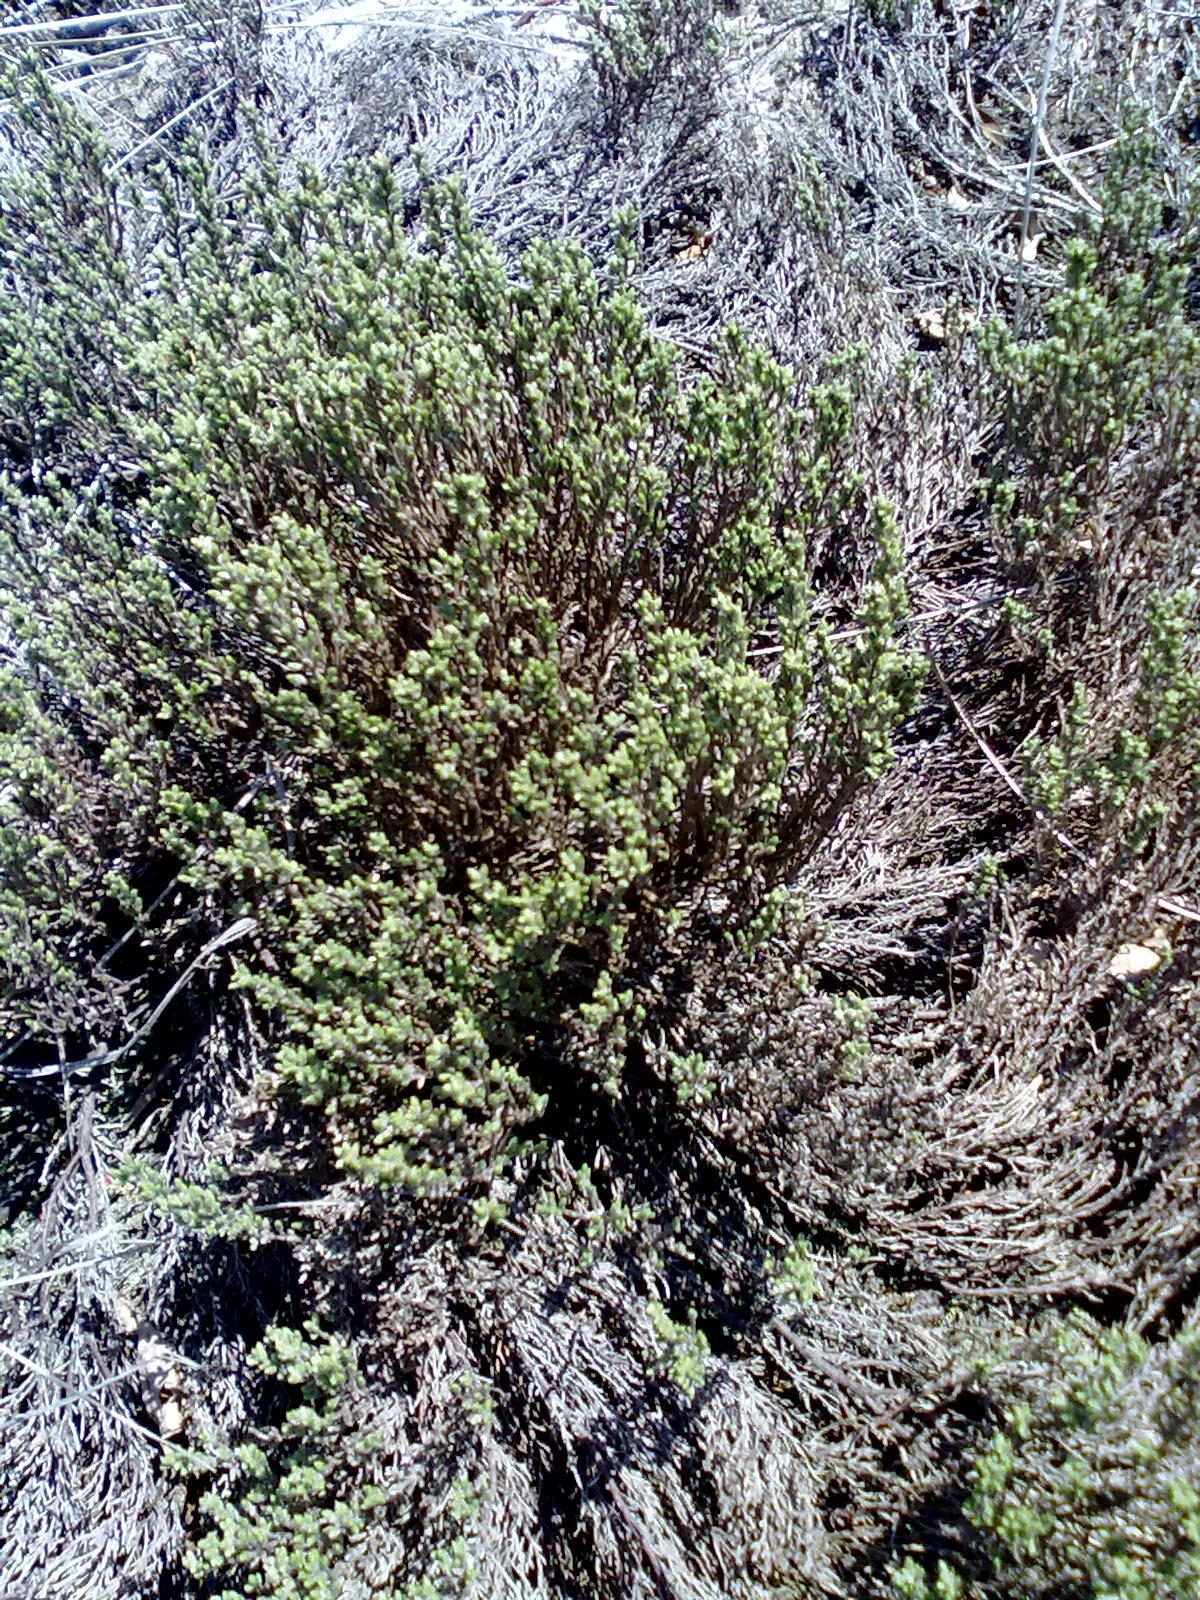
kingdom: Plantae
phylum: Tracheophyta
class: Magnoliopsida
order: Malvales
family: Cistaceae
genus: Hudsonia
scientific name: Hudsonia tomentosa
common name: Beach-heath
